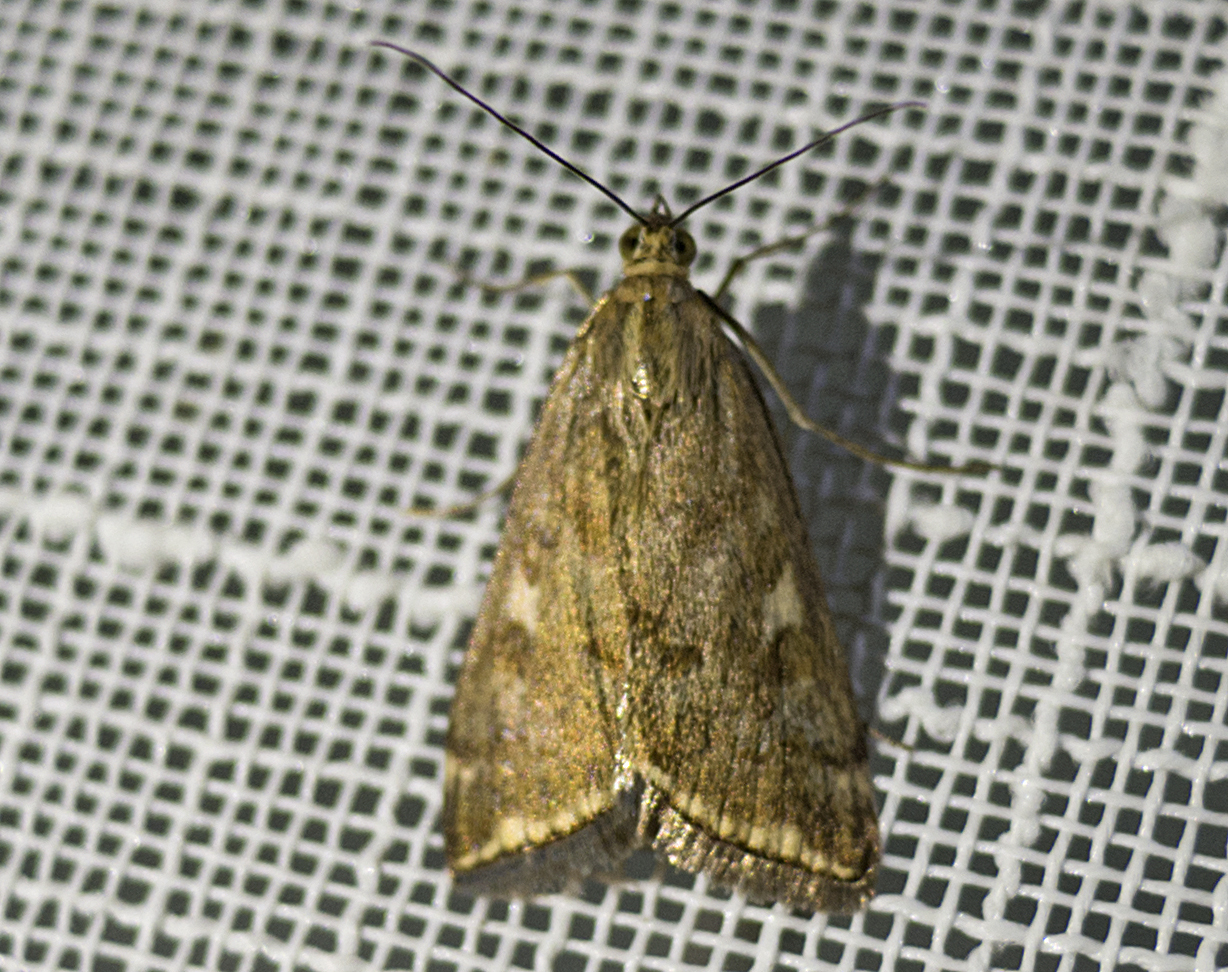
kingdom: Animalia
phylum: Arthropoda
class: Insecta
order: Lepidoptera
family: Crambidae
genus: Loxostege
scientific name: Loxostege sticticalis
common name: Crambid moth
